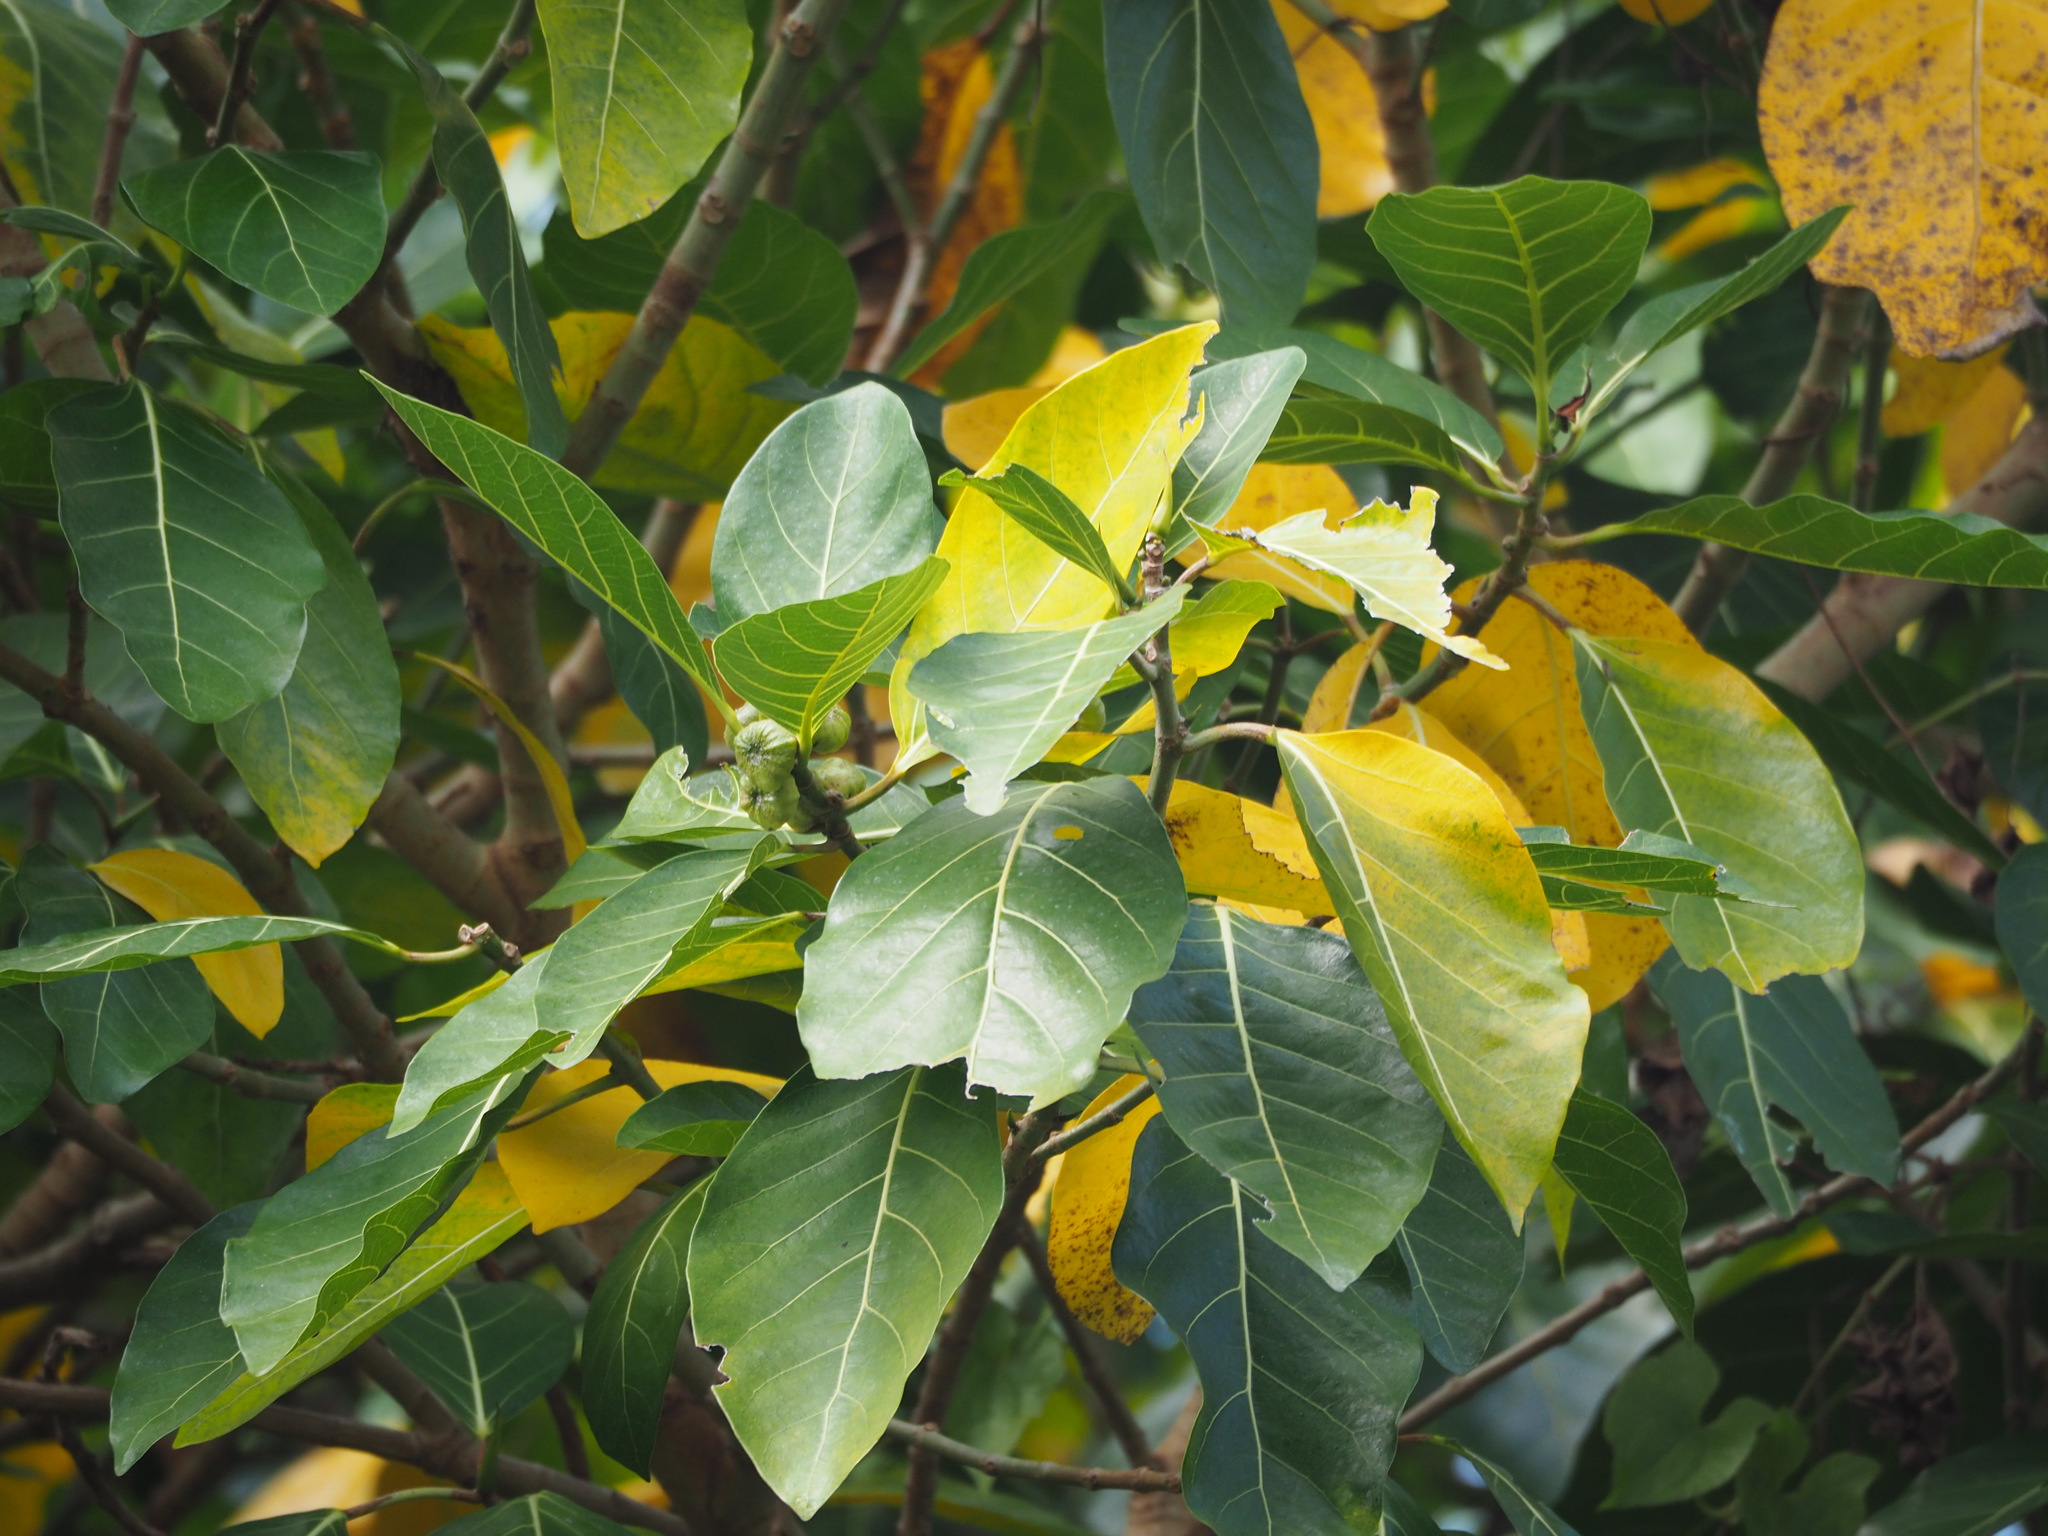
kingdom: Plantae
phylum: Tracheophyta
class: Magnoliopsida
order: Rosales
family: Moraceae
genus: Ficus
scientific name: Ficus septica
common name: Septic fig
